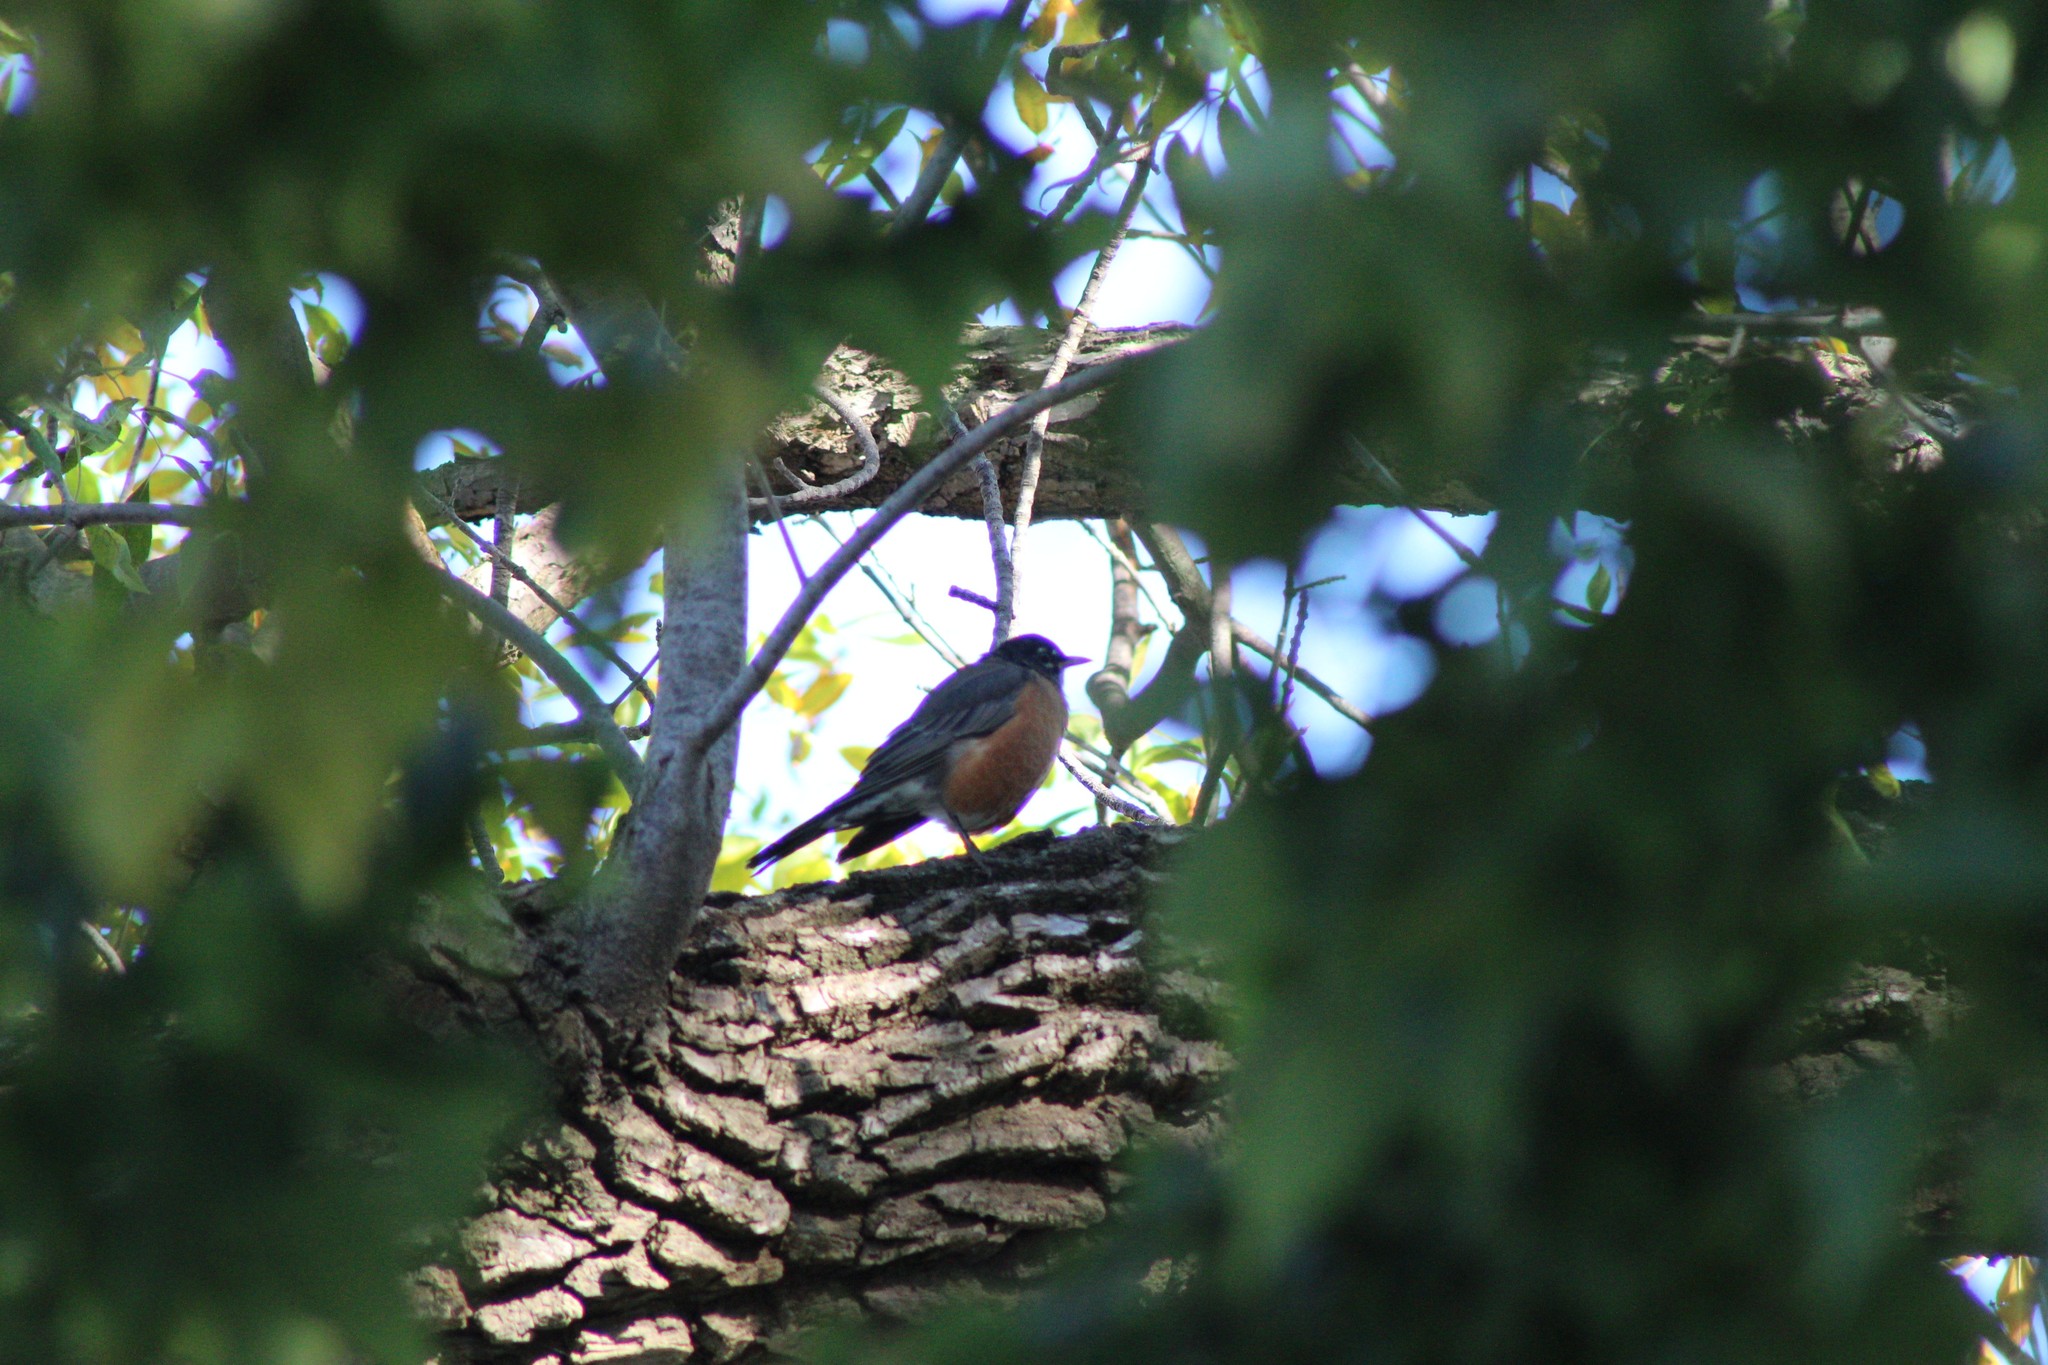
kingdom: Animalia
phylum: Chordata
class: Aves
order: Passeriformes
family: Turdidae
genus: Turdus
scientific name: Turdus migratorius
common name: American robin
